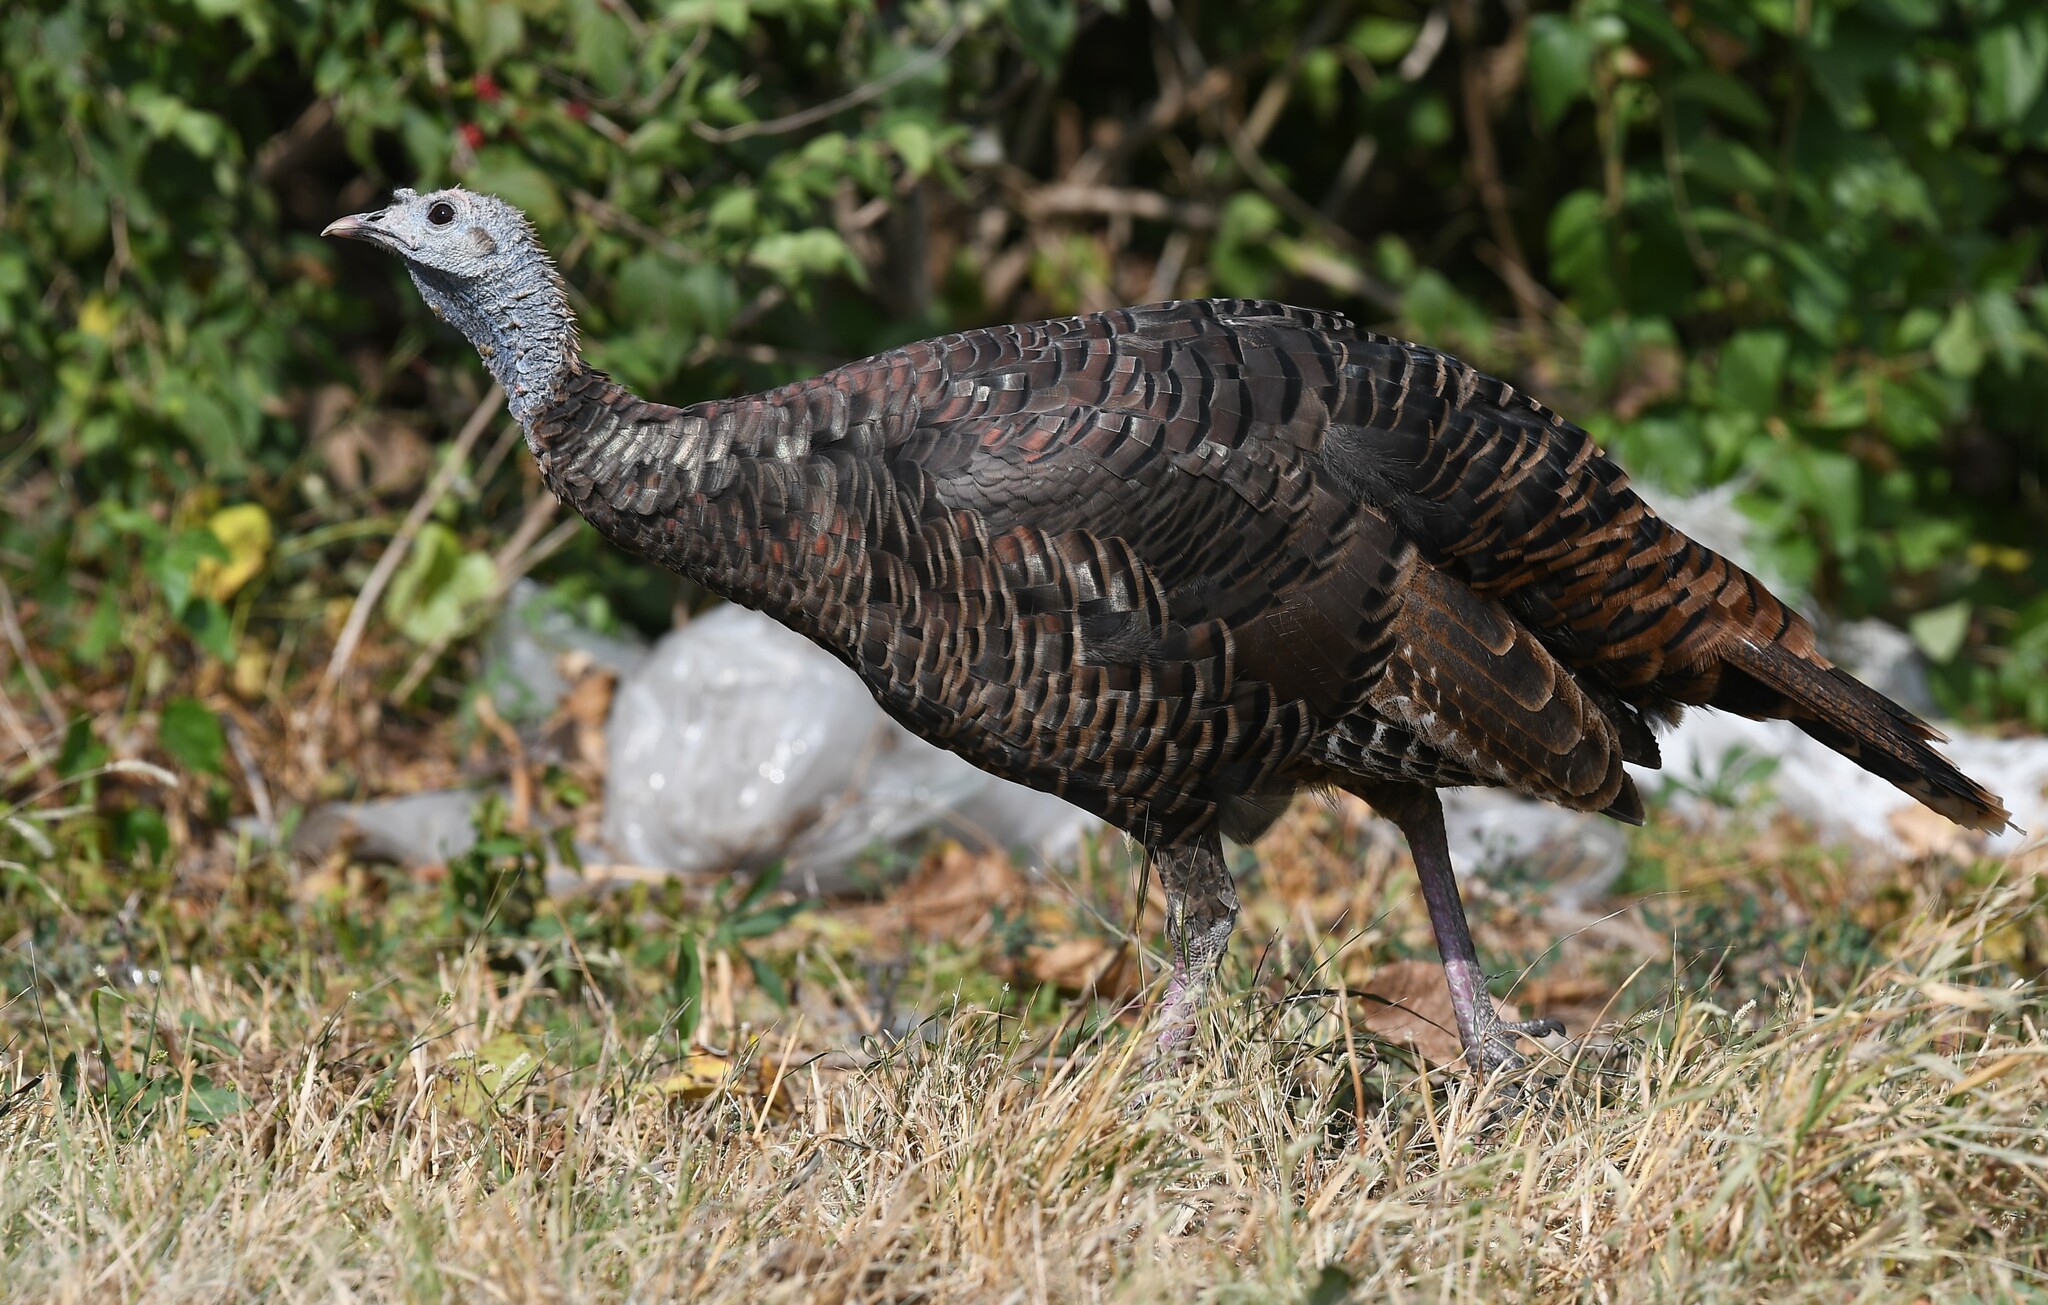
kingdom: Animalia
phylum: Chordata
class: Aves
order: Galliformes
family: Phasianidae
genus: Meleagris
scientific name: Meleagris gallopavo
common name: Wild turkey
